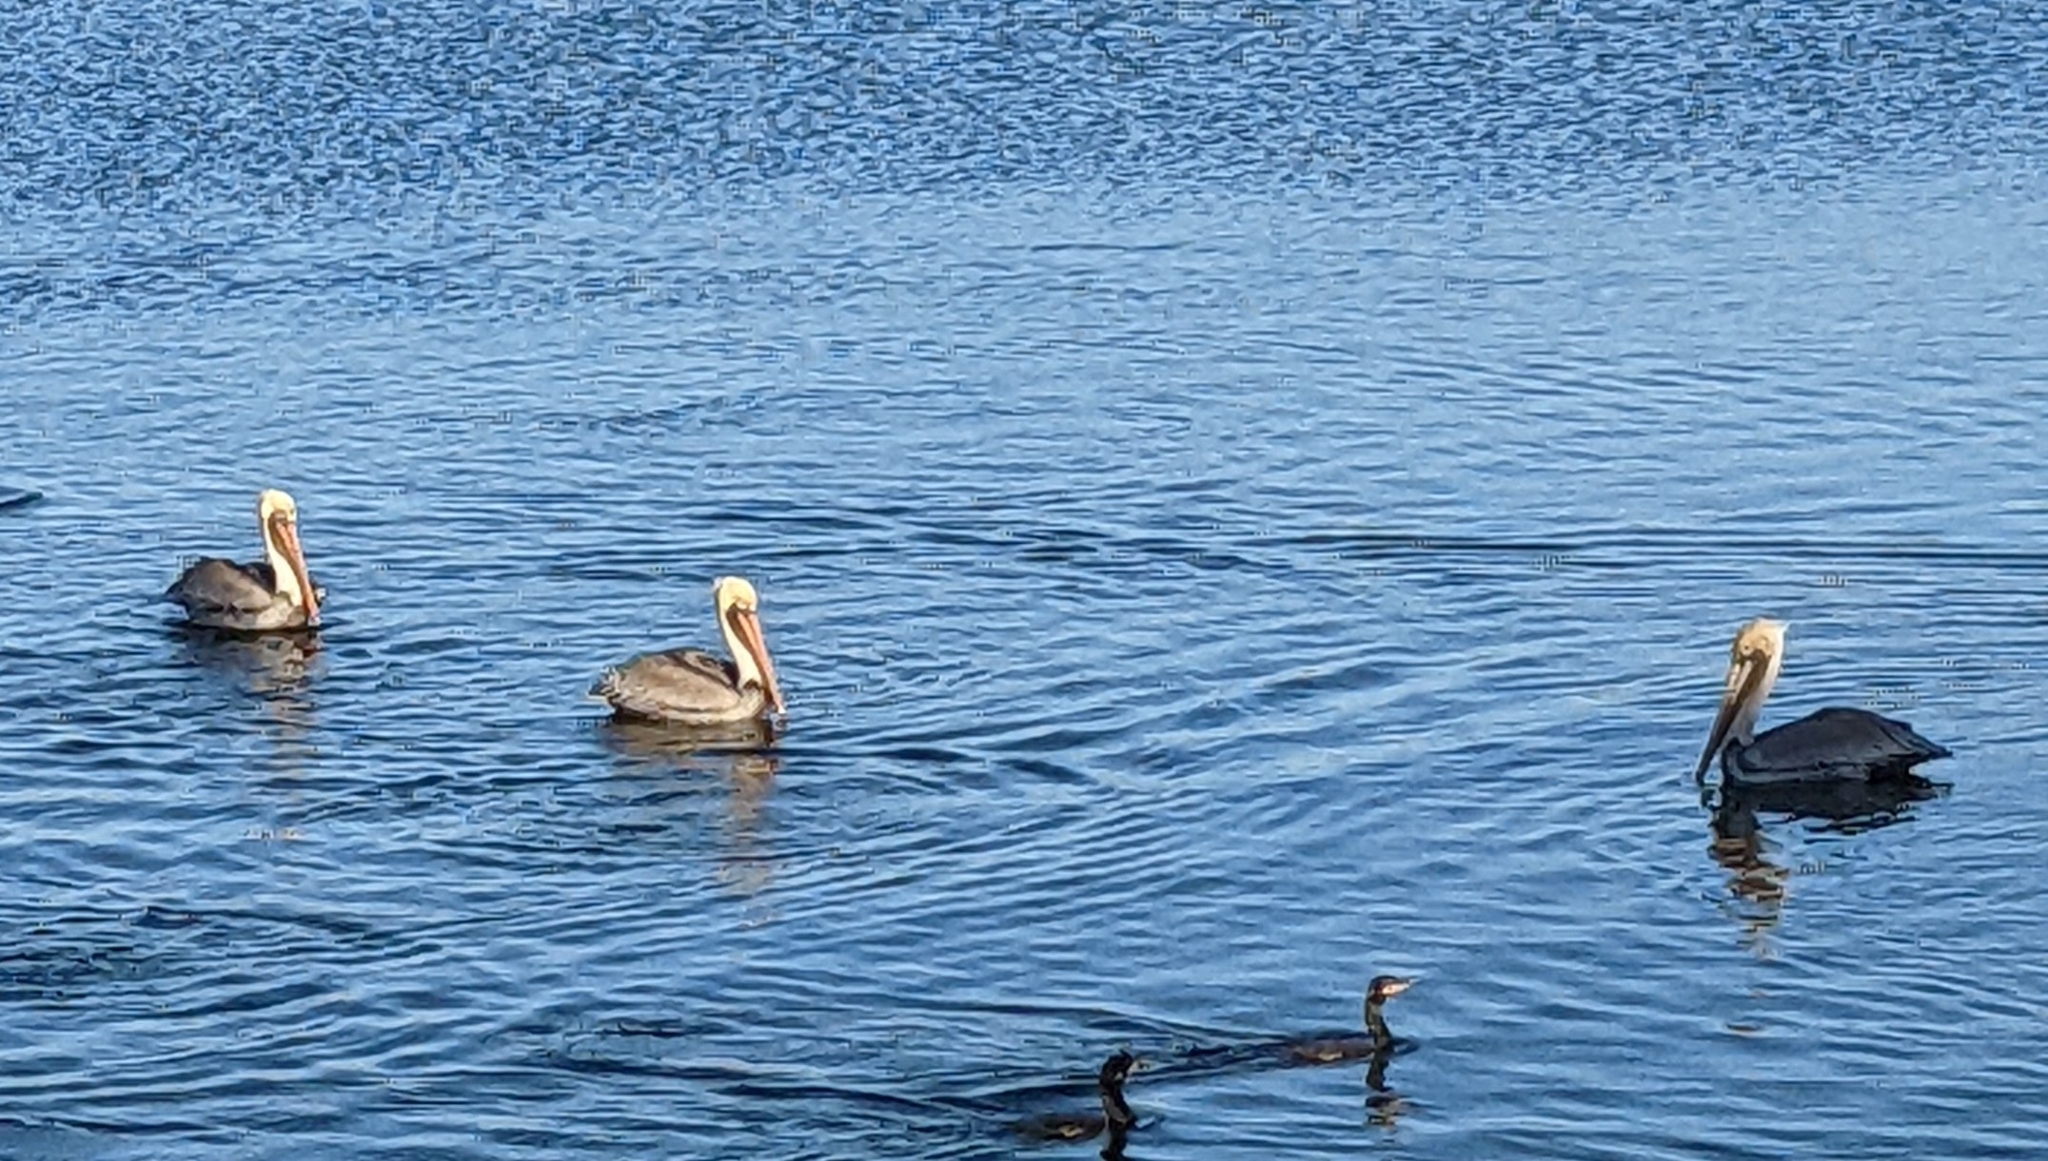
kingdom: Animalia
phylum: Chordata
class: Aves
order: Pelecaniformes
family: Pelecanidae
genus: Pelecanus
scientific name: Pelecanus occidentalis
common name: Brown pelican
